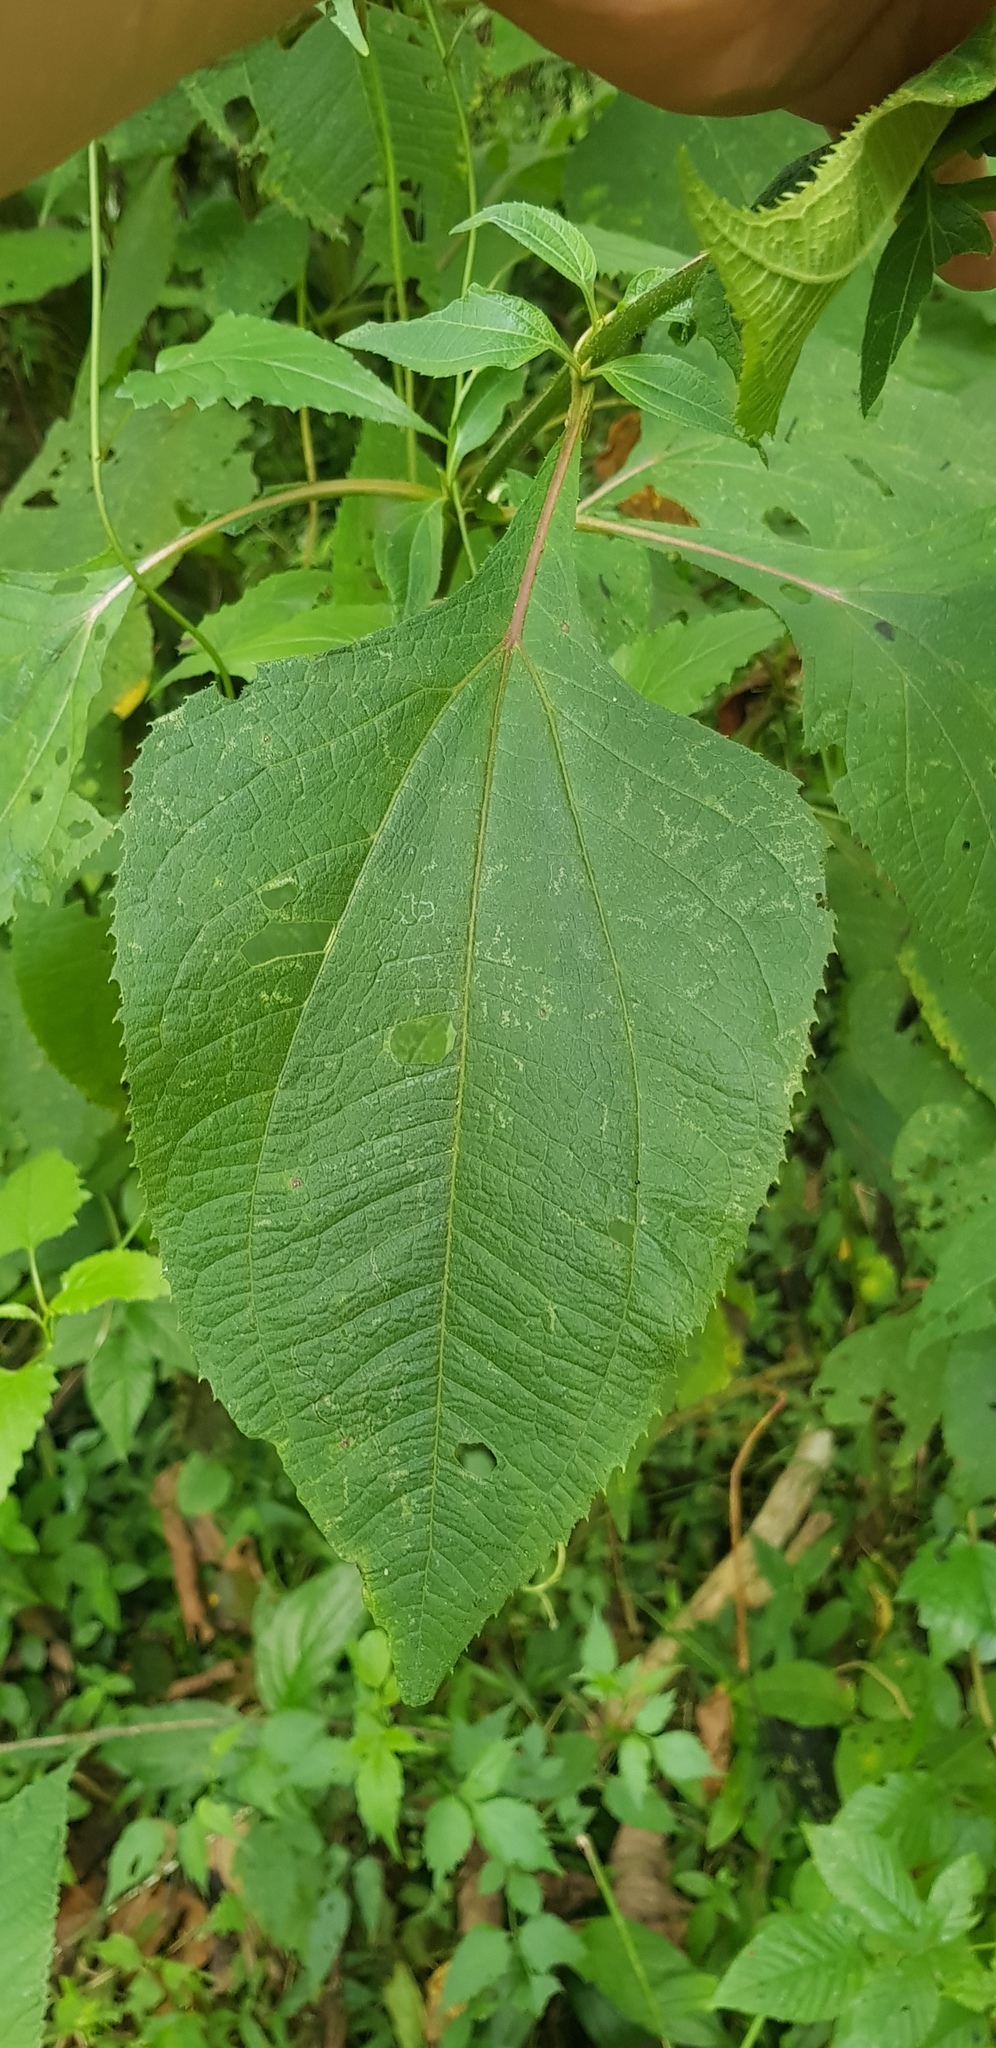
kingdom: Plantae
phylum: Tracheophyta
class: Magnoliopsida
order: Asterales
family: Asteraceae
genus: Trigonospermum
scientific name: Trigonospermum melampodioides
